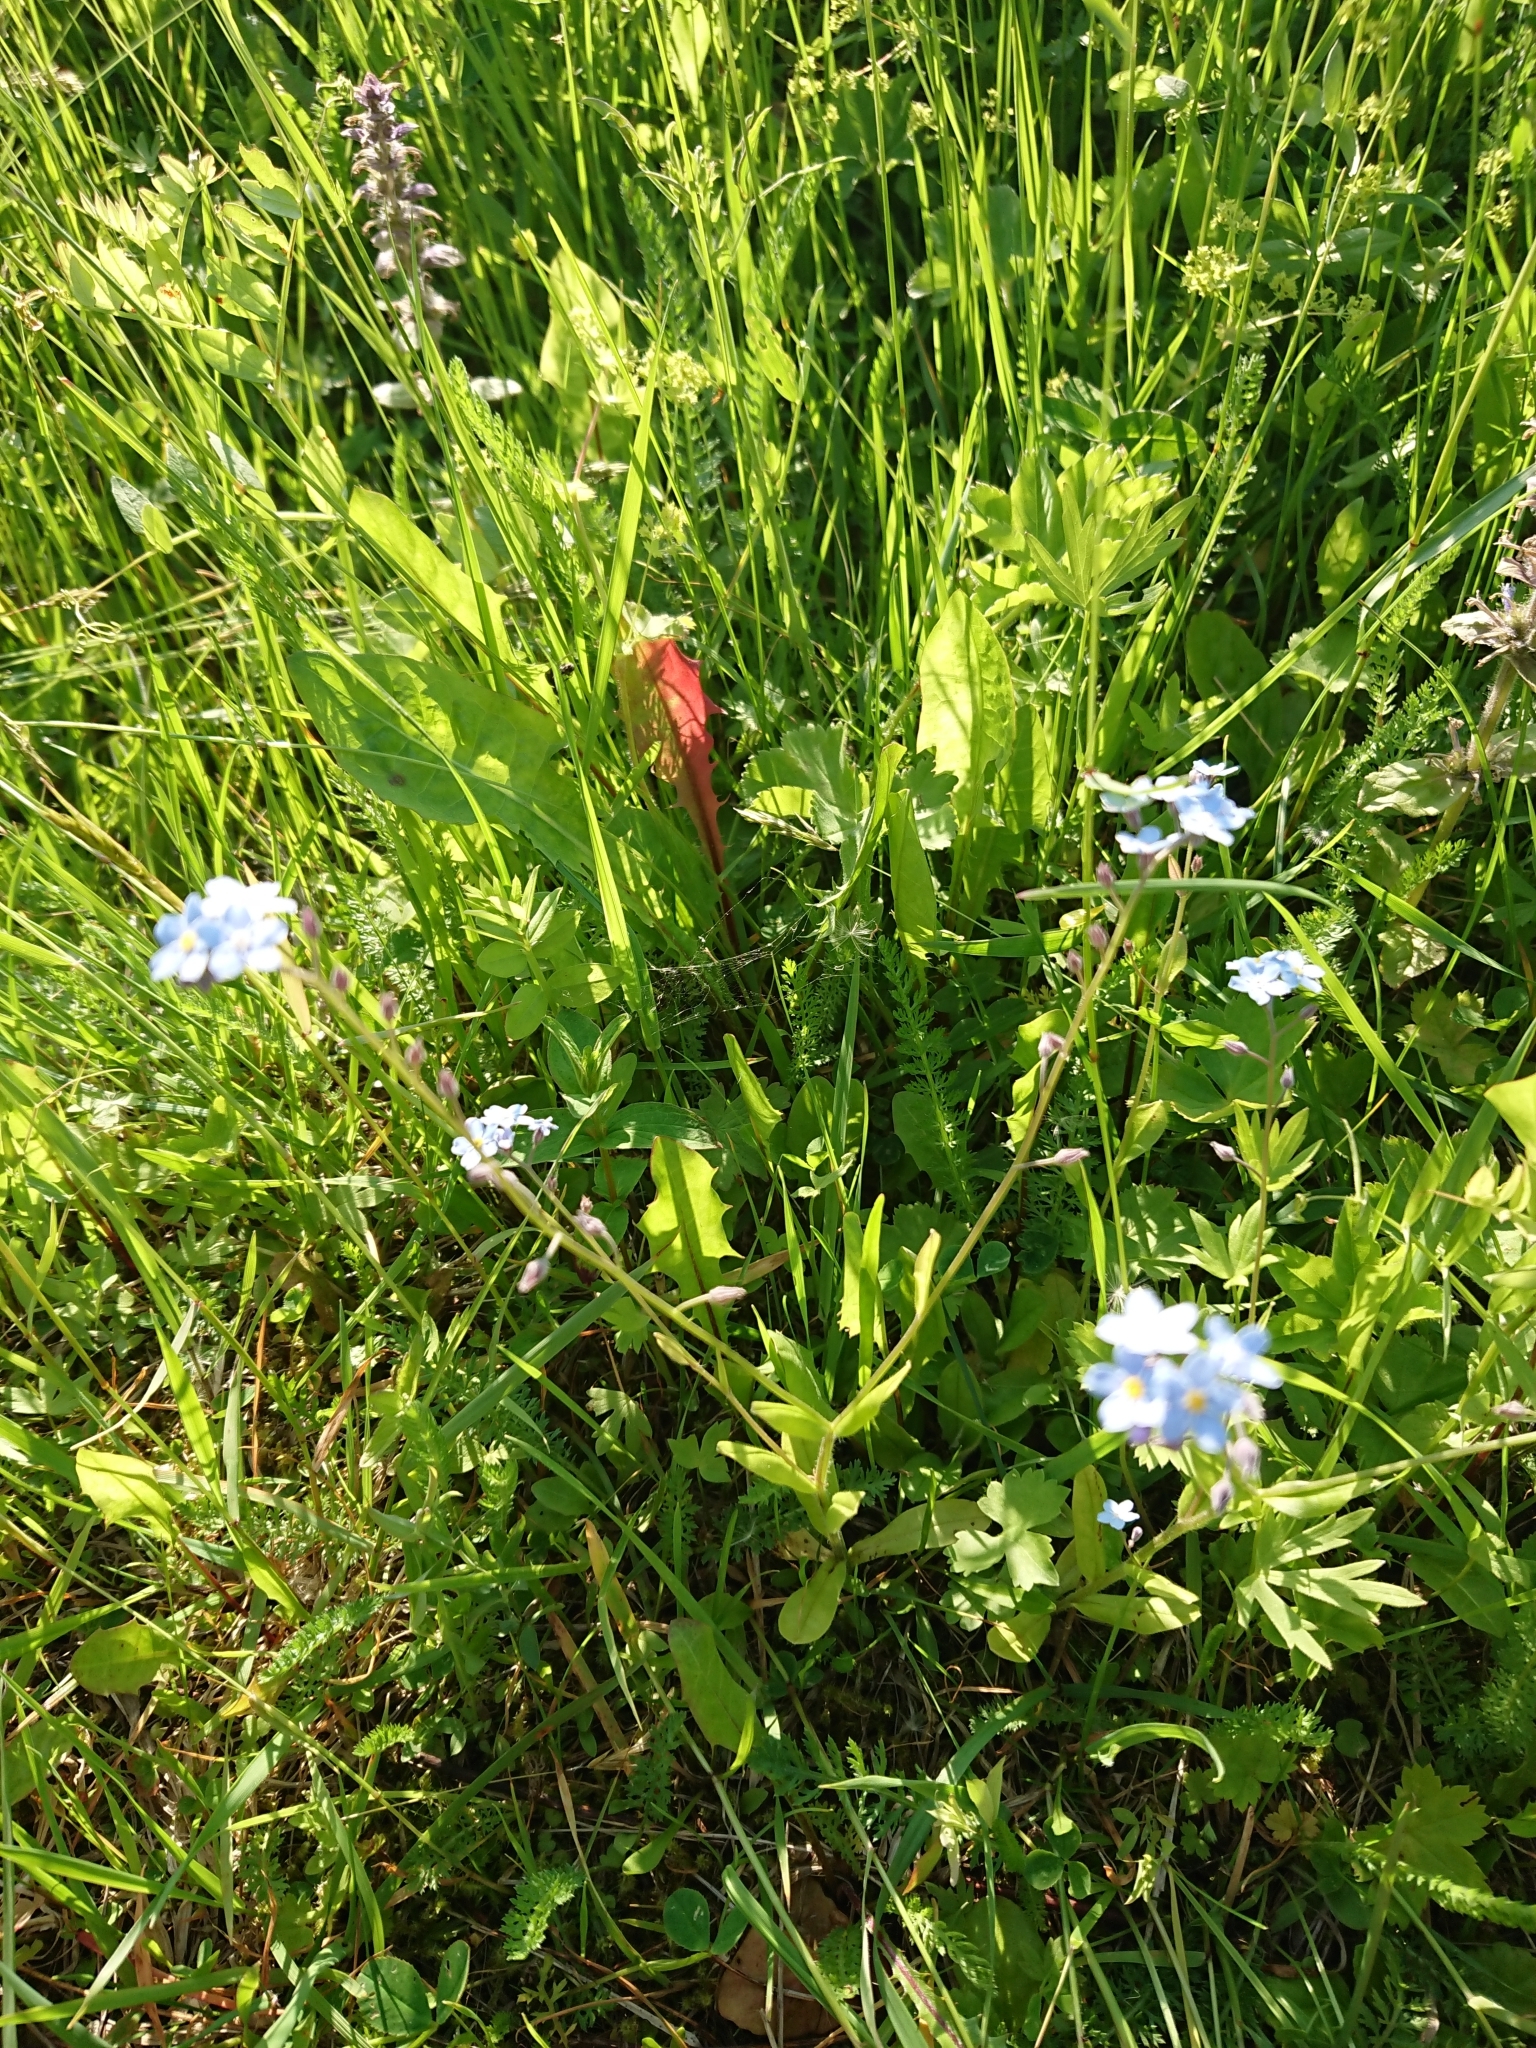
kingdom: Plantae
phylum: Tracheophyta
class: Magnoliopsida
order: Boraginales
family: Boraginaceae
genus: Myosotis
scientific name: Myosotis arvensis
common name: Field forget-me-not
